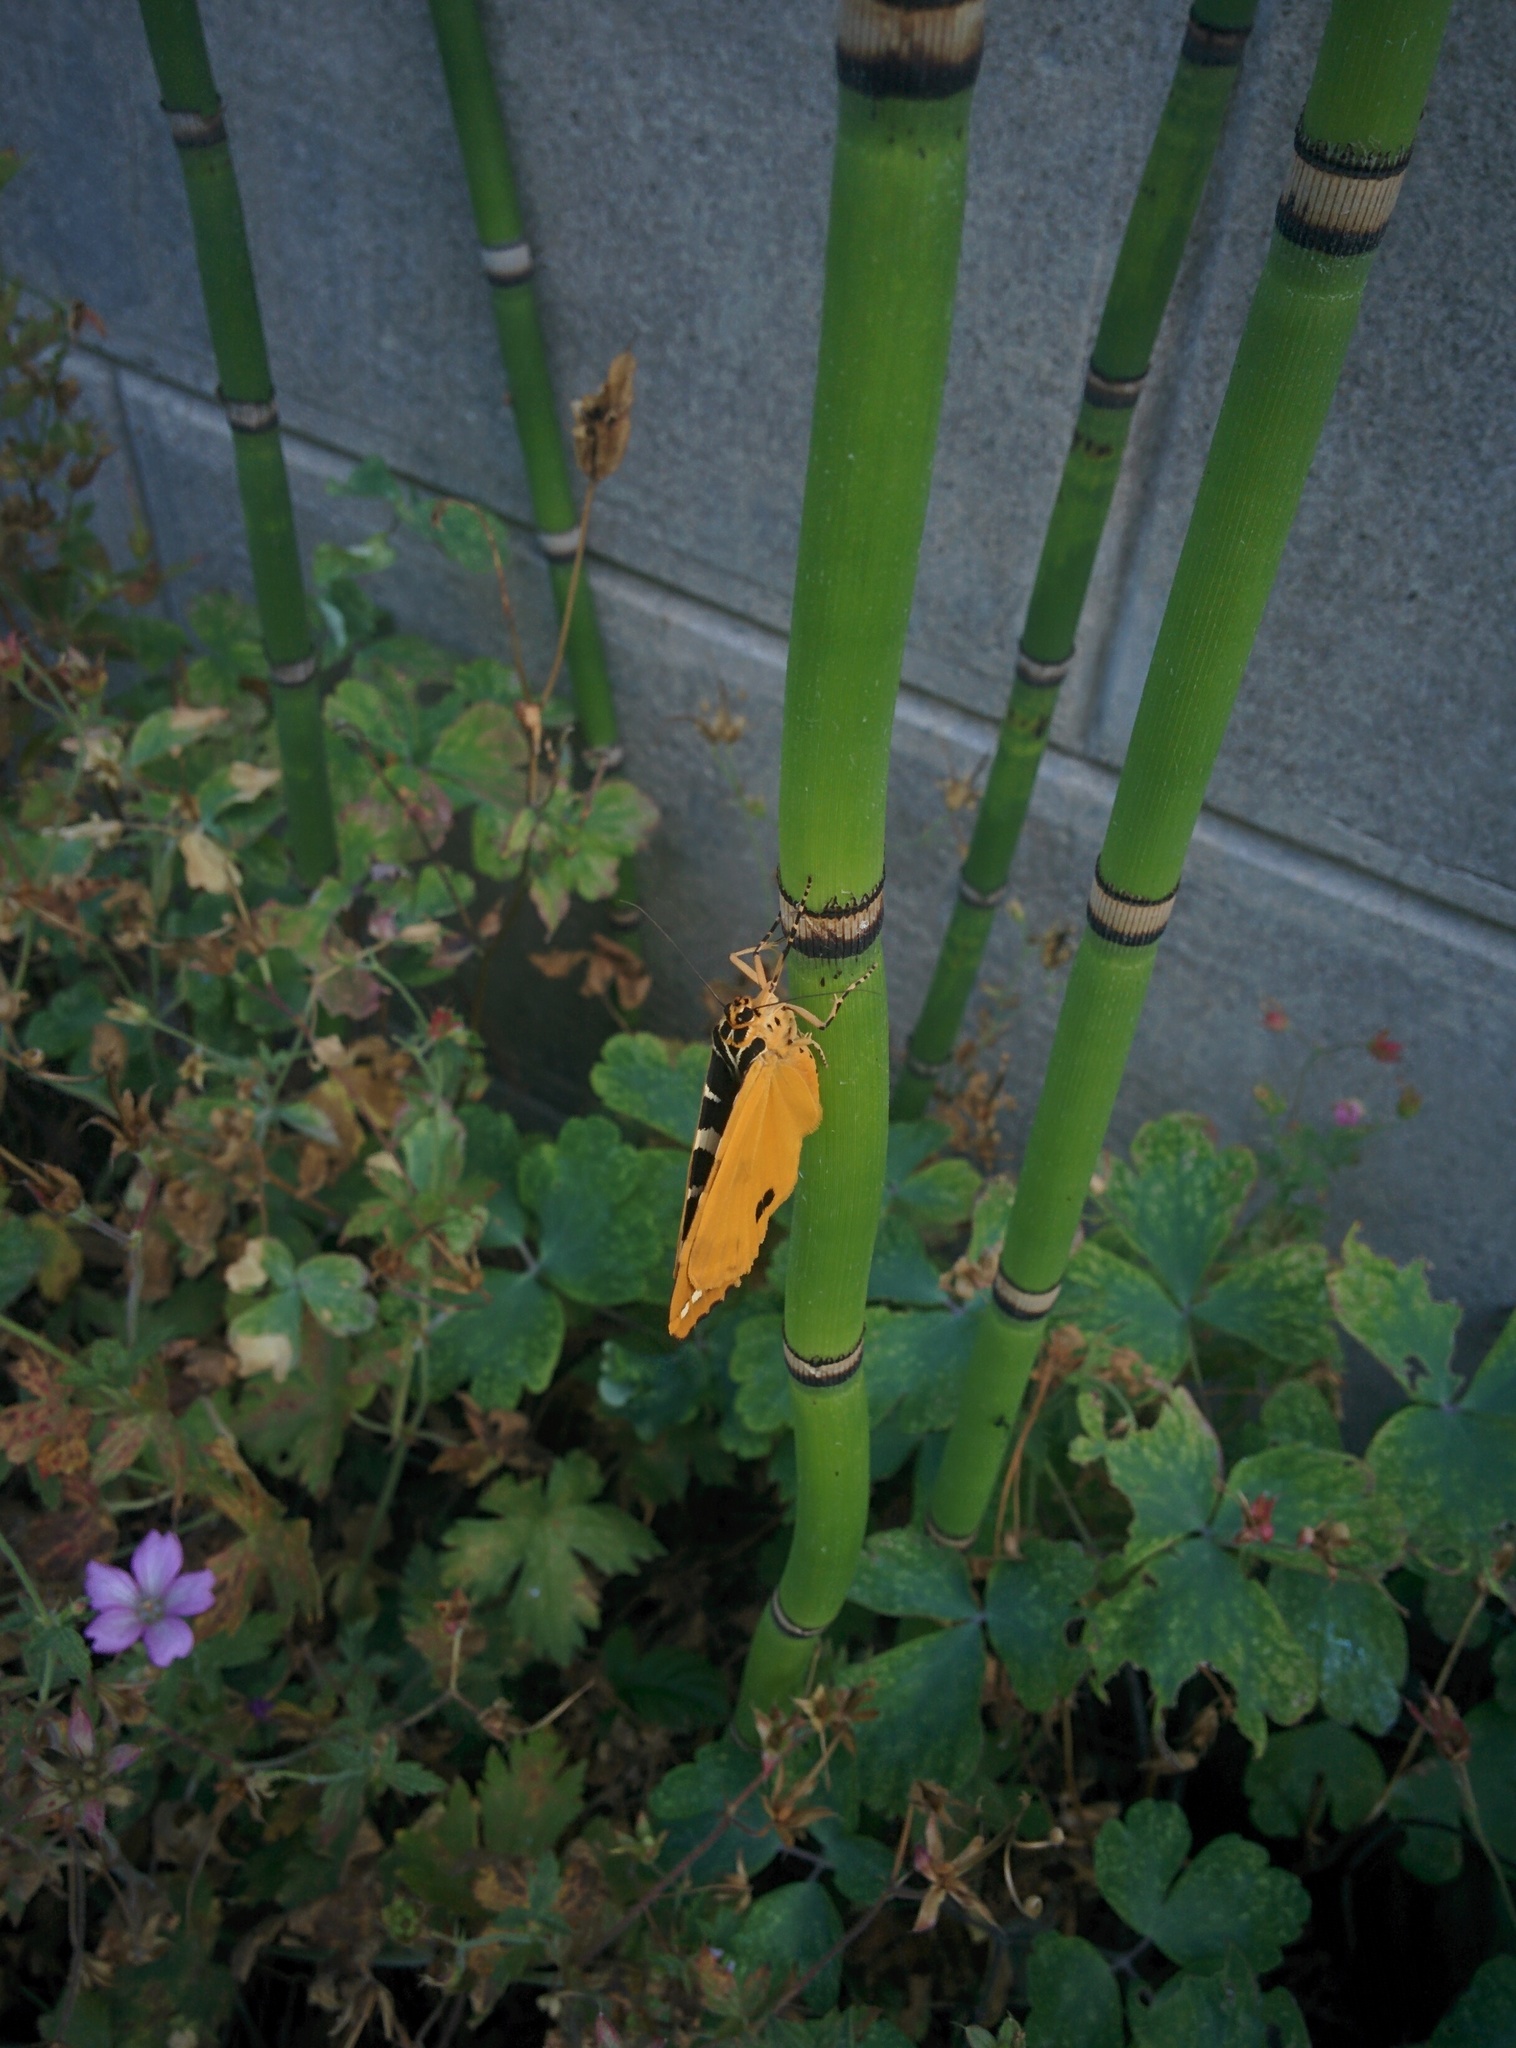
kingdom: Animalia
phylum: Arthropoda
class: Insecta
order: Lepidoptera
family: Erebidae
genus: Euplagia
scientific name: Euplagia quadripunctaria
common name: Jersey tiger
